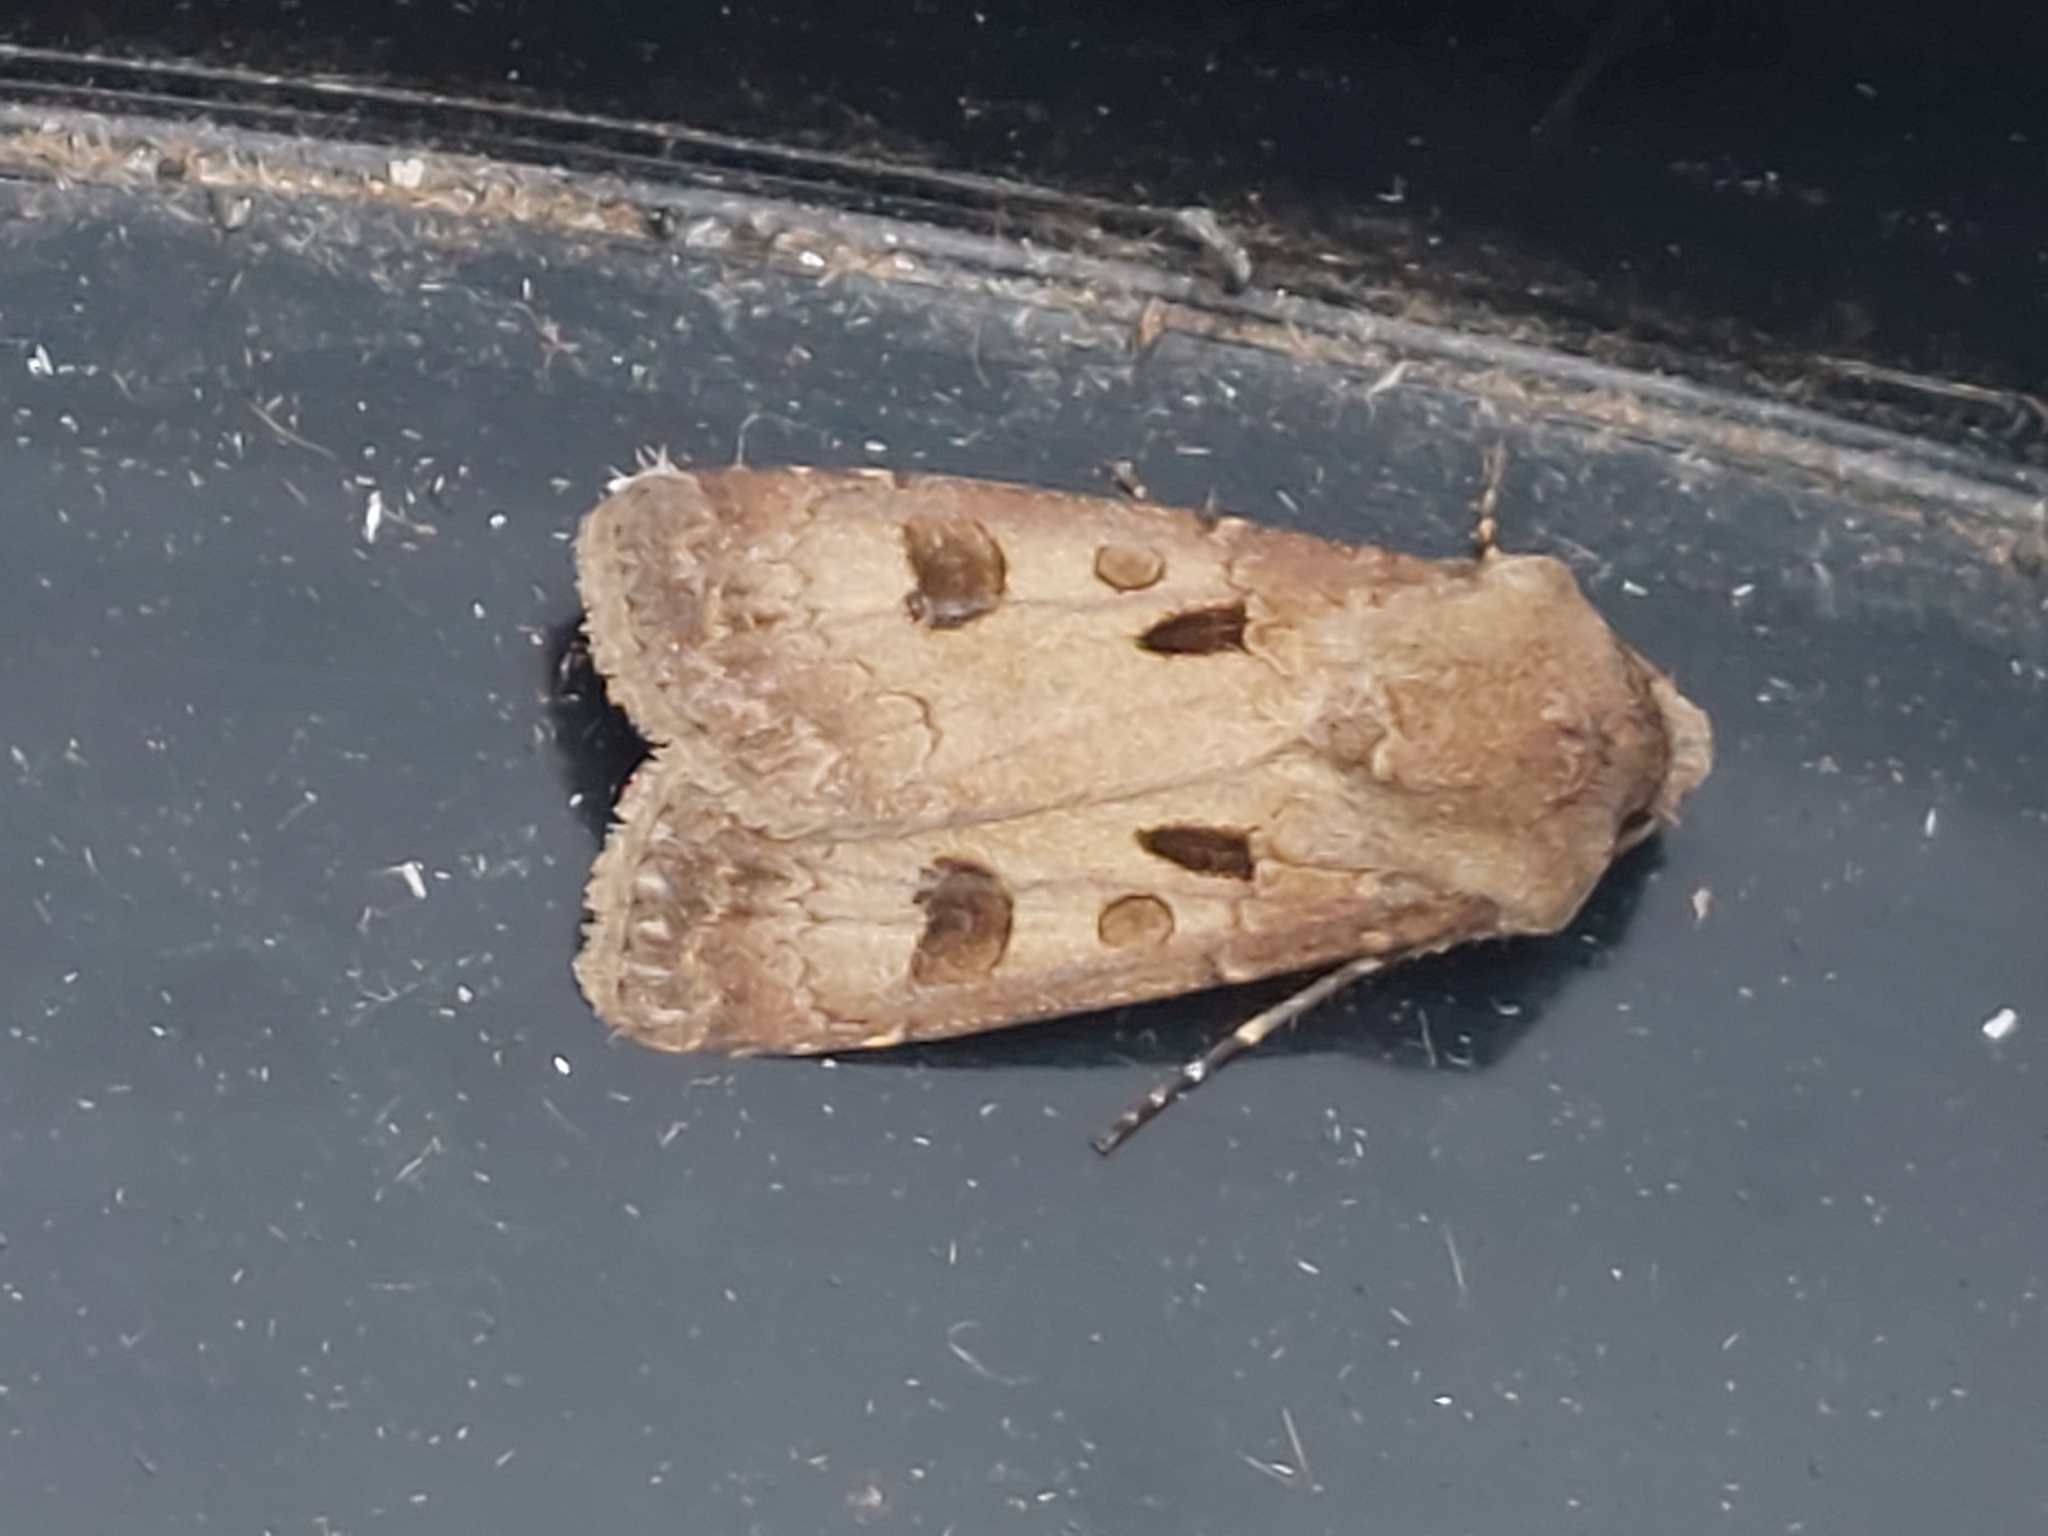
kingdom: Animalia
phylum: Arthropoda
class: Insecta
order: Lepidoptera
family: Noctuidae
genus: Agrotis
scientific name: Agrotis exclamationis
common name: Heart and dart
